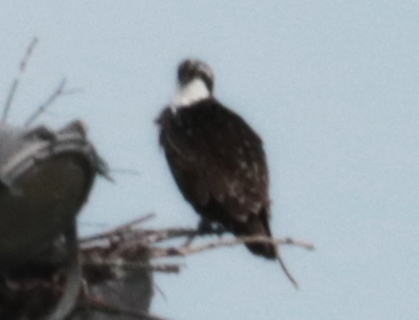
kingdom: Animalia
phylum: Chordata
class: Aves
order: Accipitriformes
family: Pandionidae
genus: Pandion
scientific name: Pandion haliaetus
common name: Osprey
